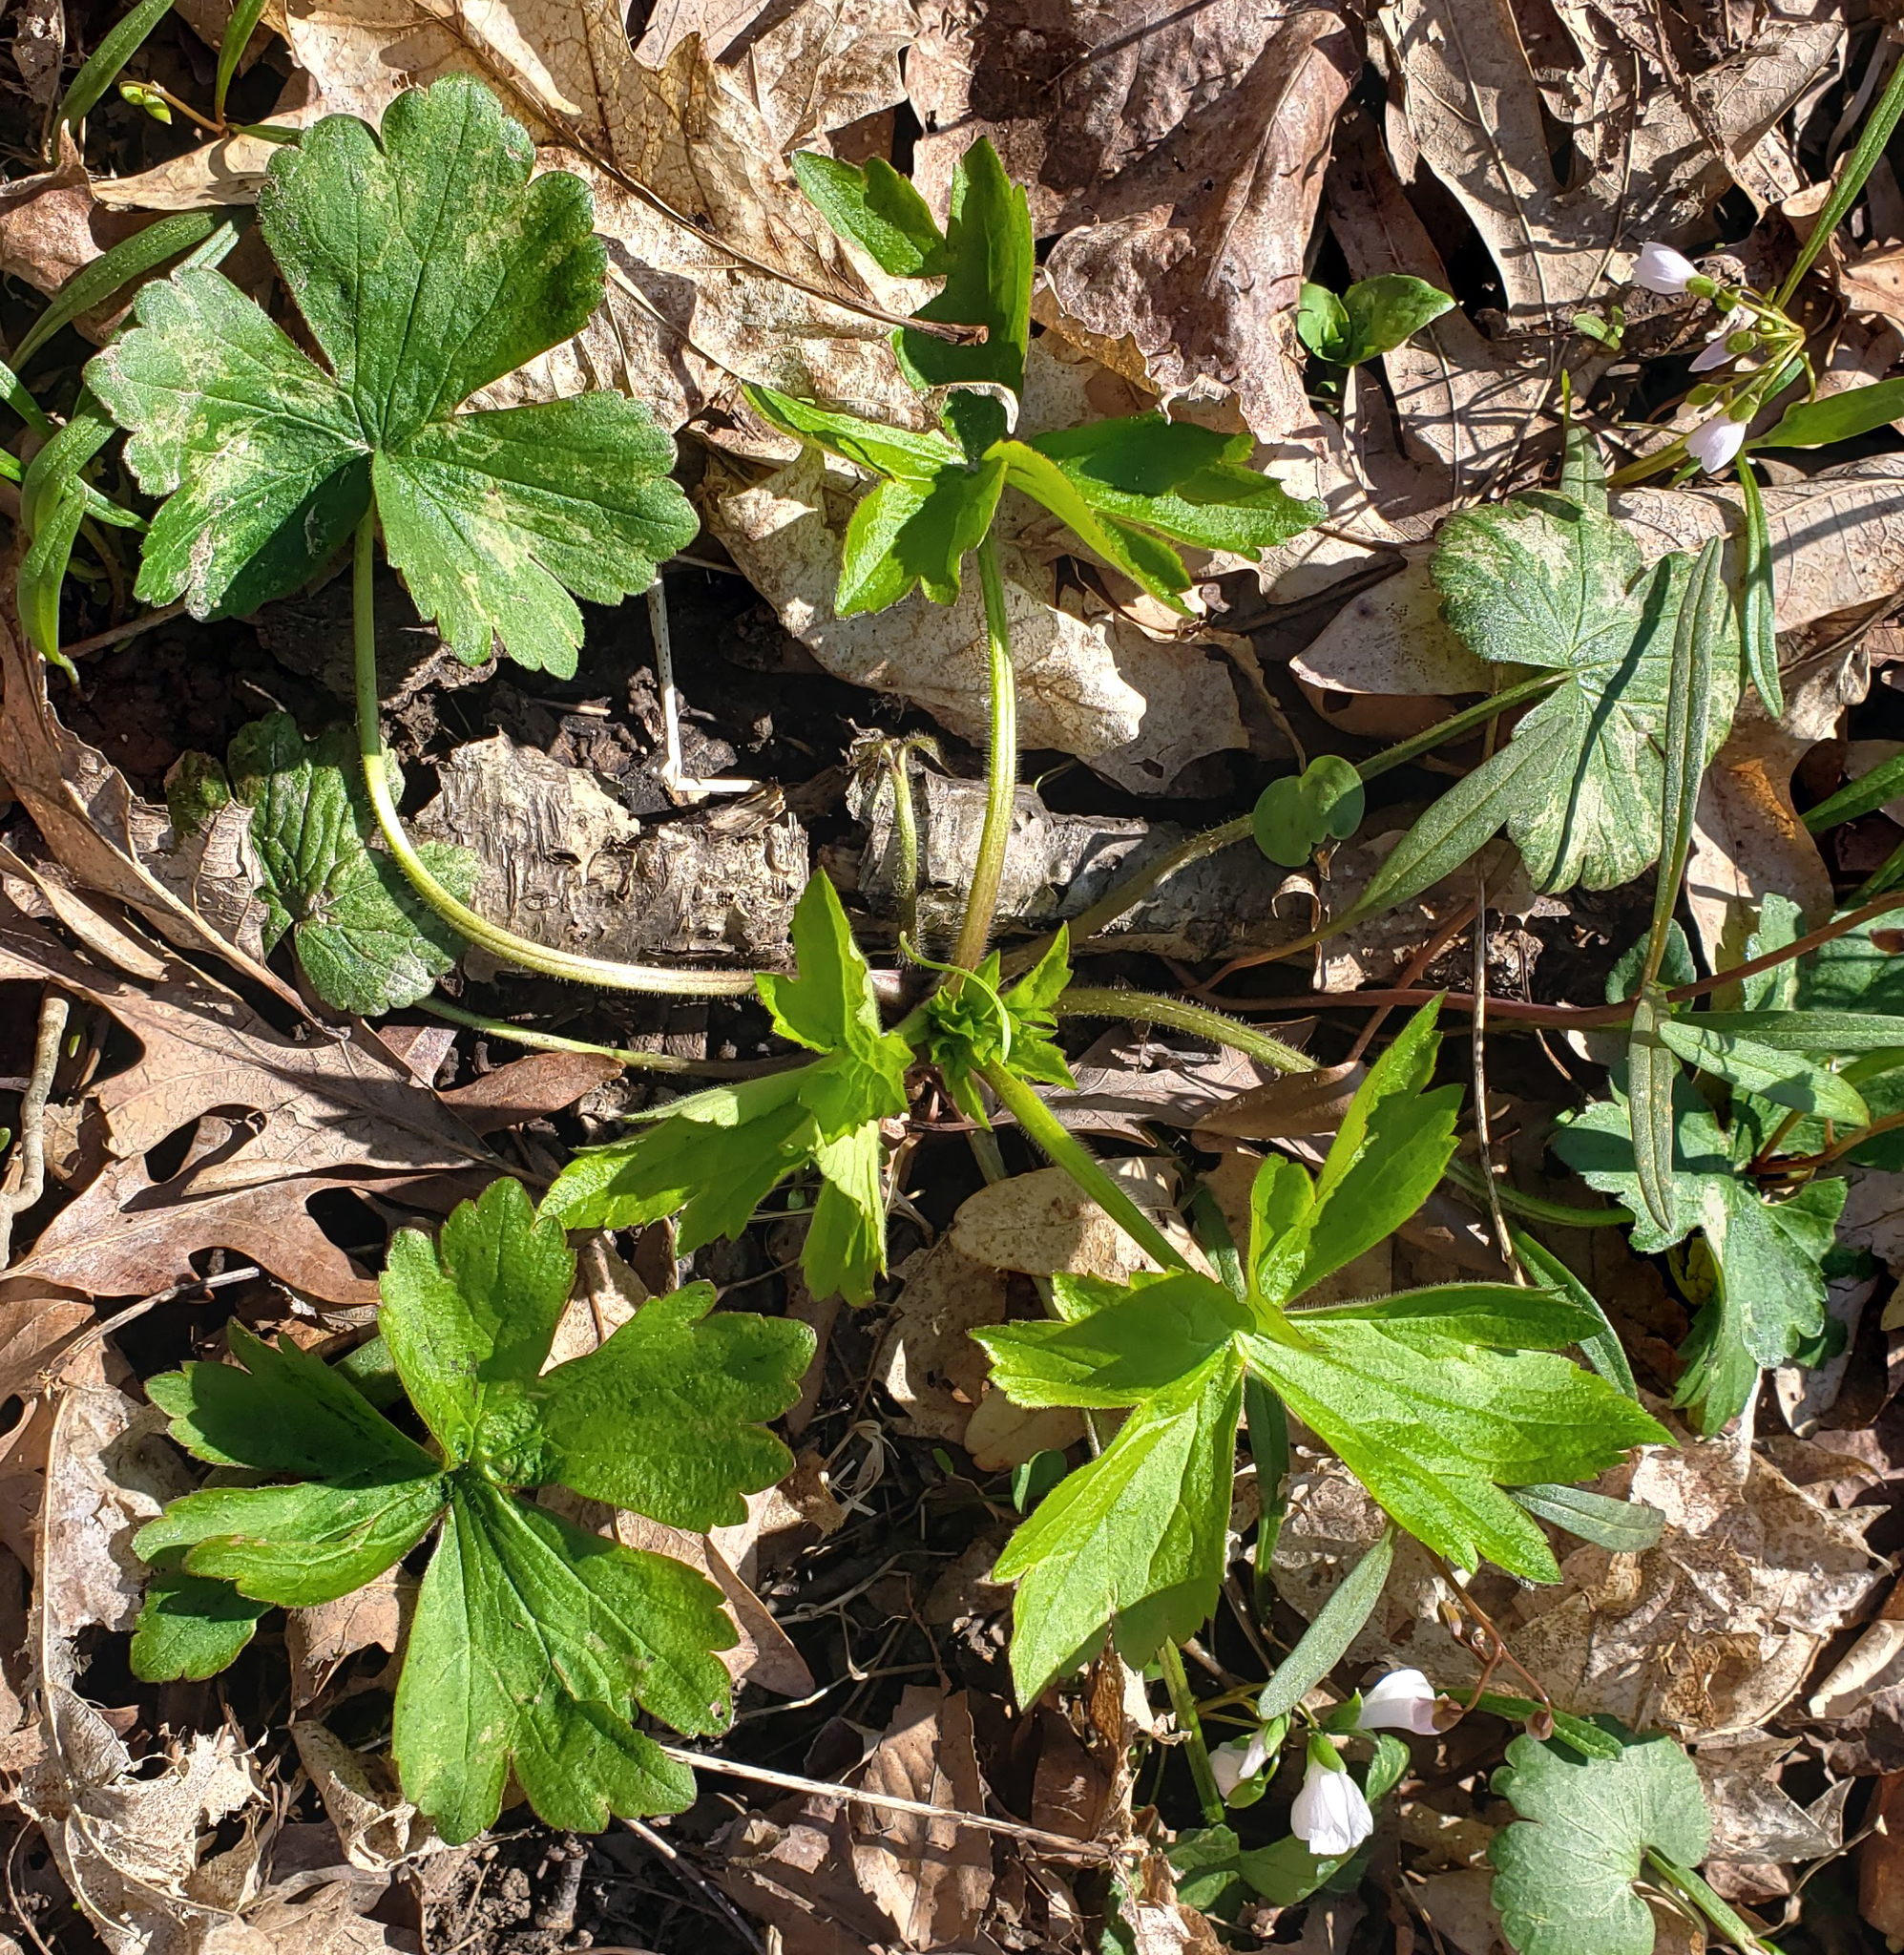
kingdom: Plantae
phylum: Tracheophyta
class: Magnoliopsida
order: Ranunculales
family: Ranunculaceae
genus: Ranunculus
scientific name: Ranunculus recurvatus
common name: Blisterwort
